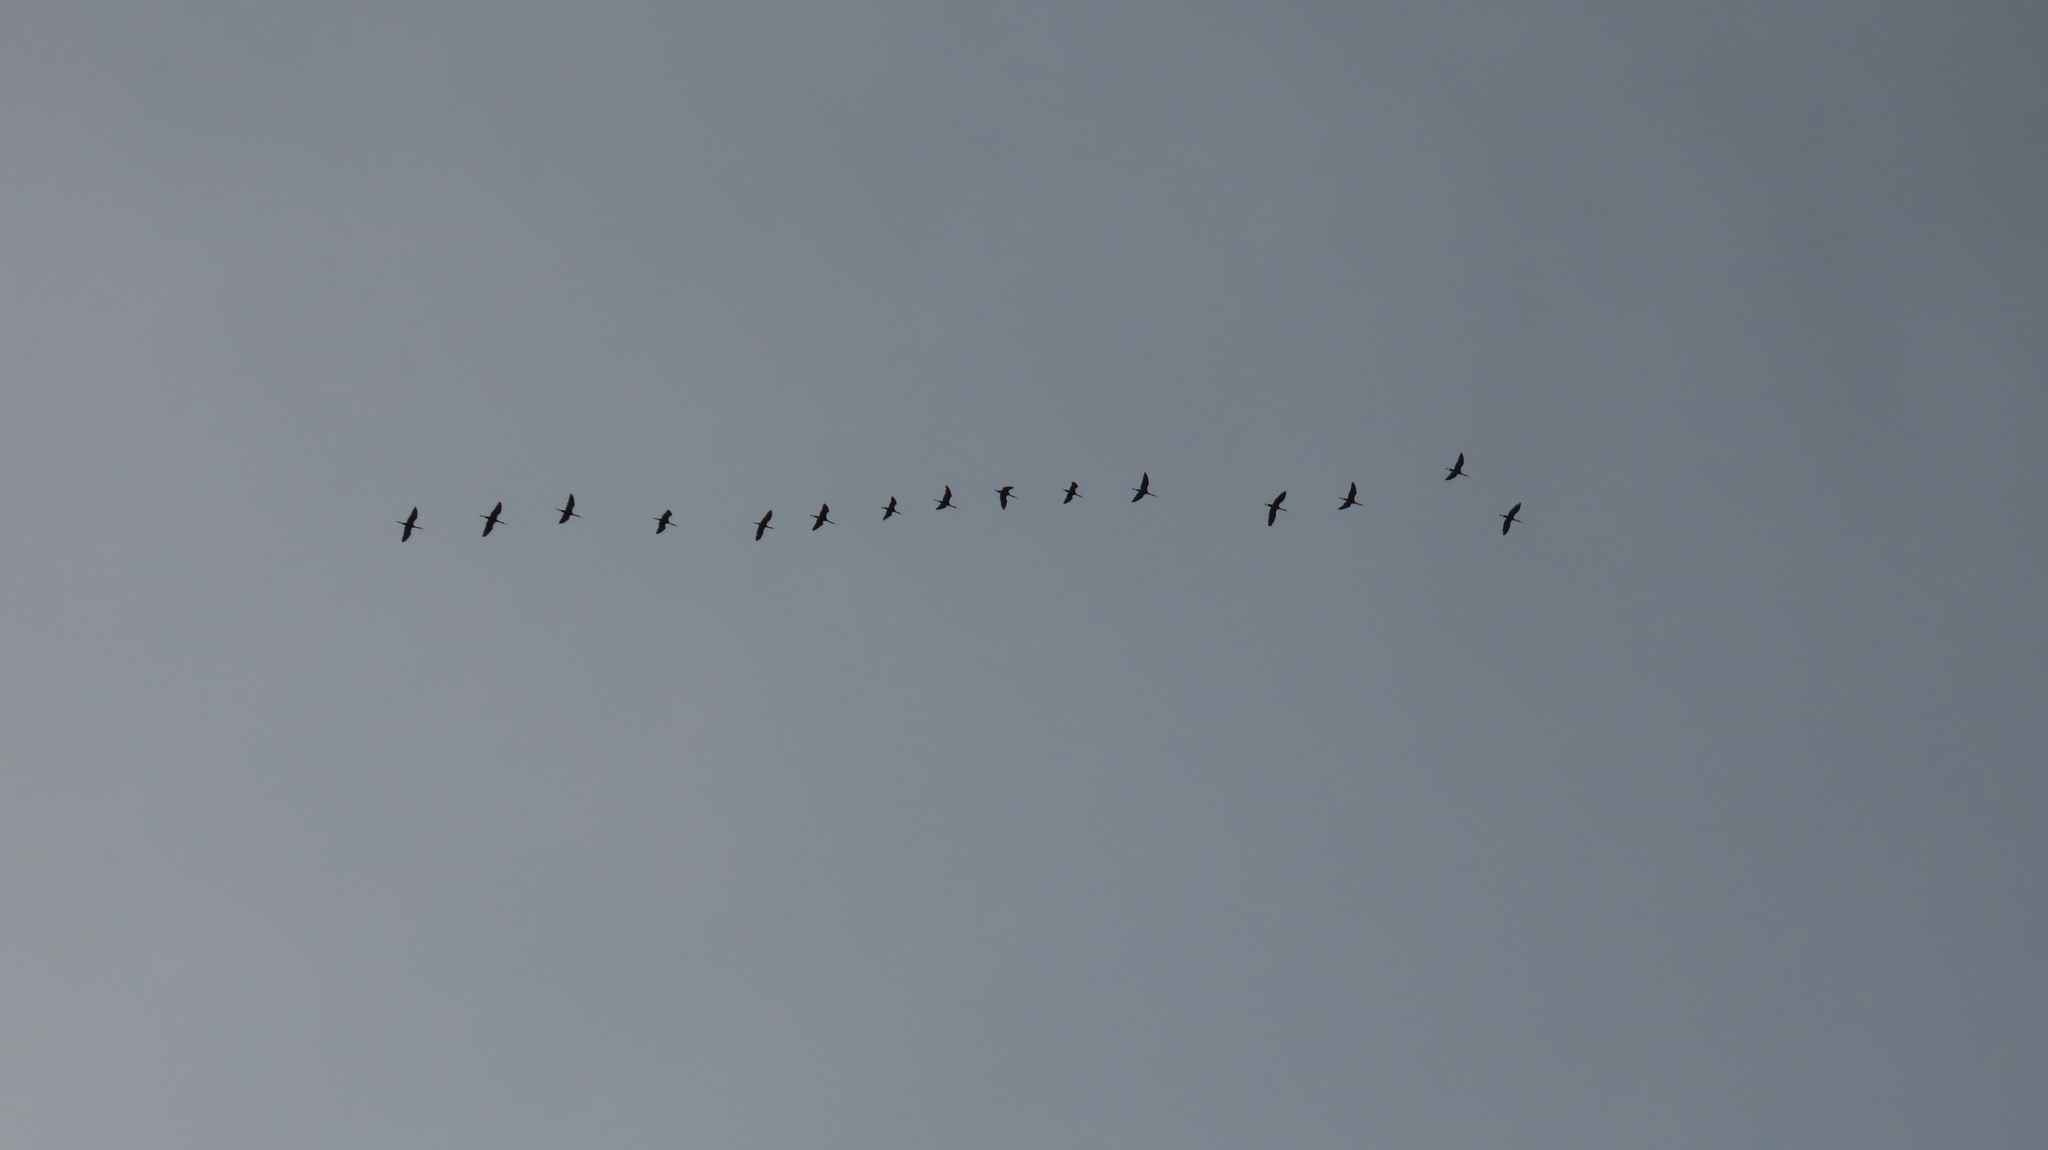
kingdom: Animalia
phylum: Chordata
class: Aves
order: Pelecaniformes
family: Threskiornithidae
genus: Plegadis
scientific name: Plegadis falcinellus
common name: Glossy ibis
